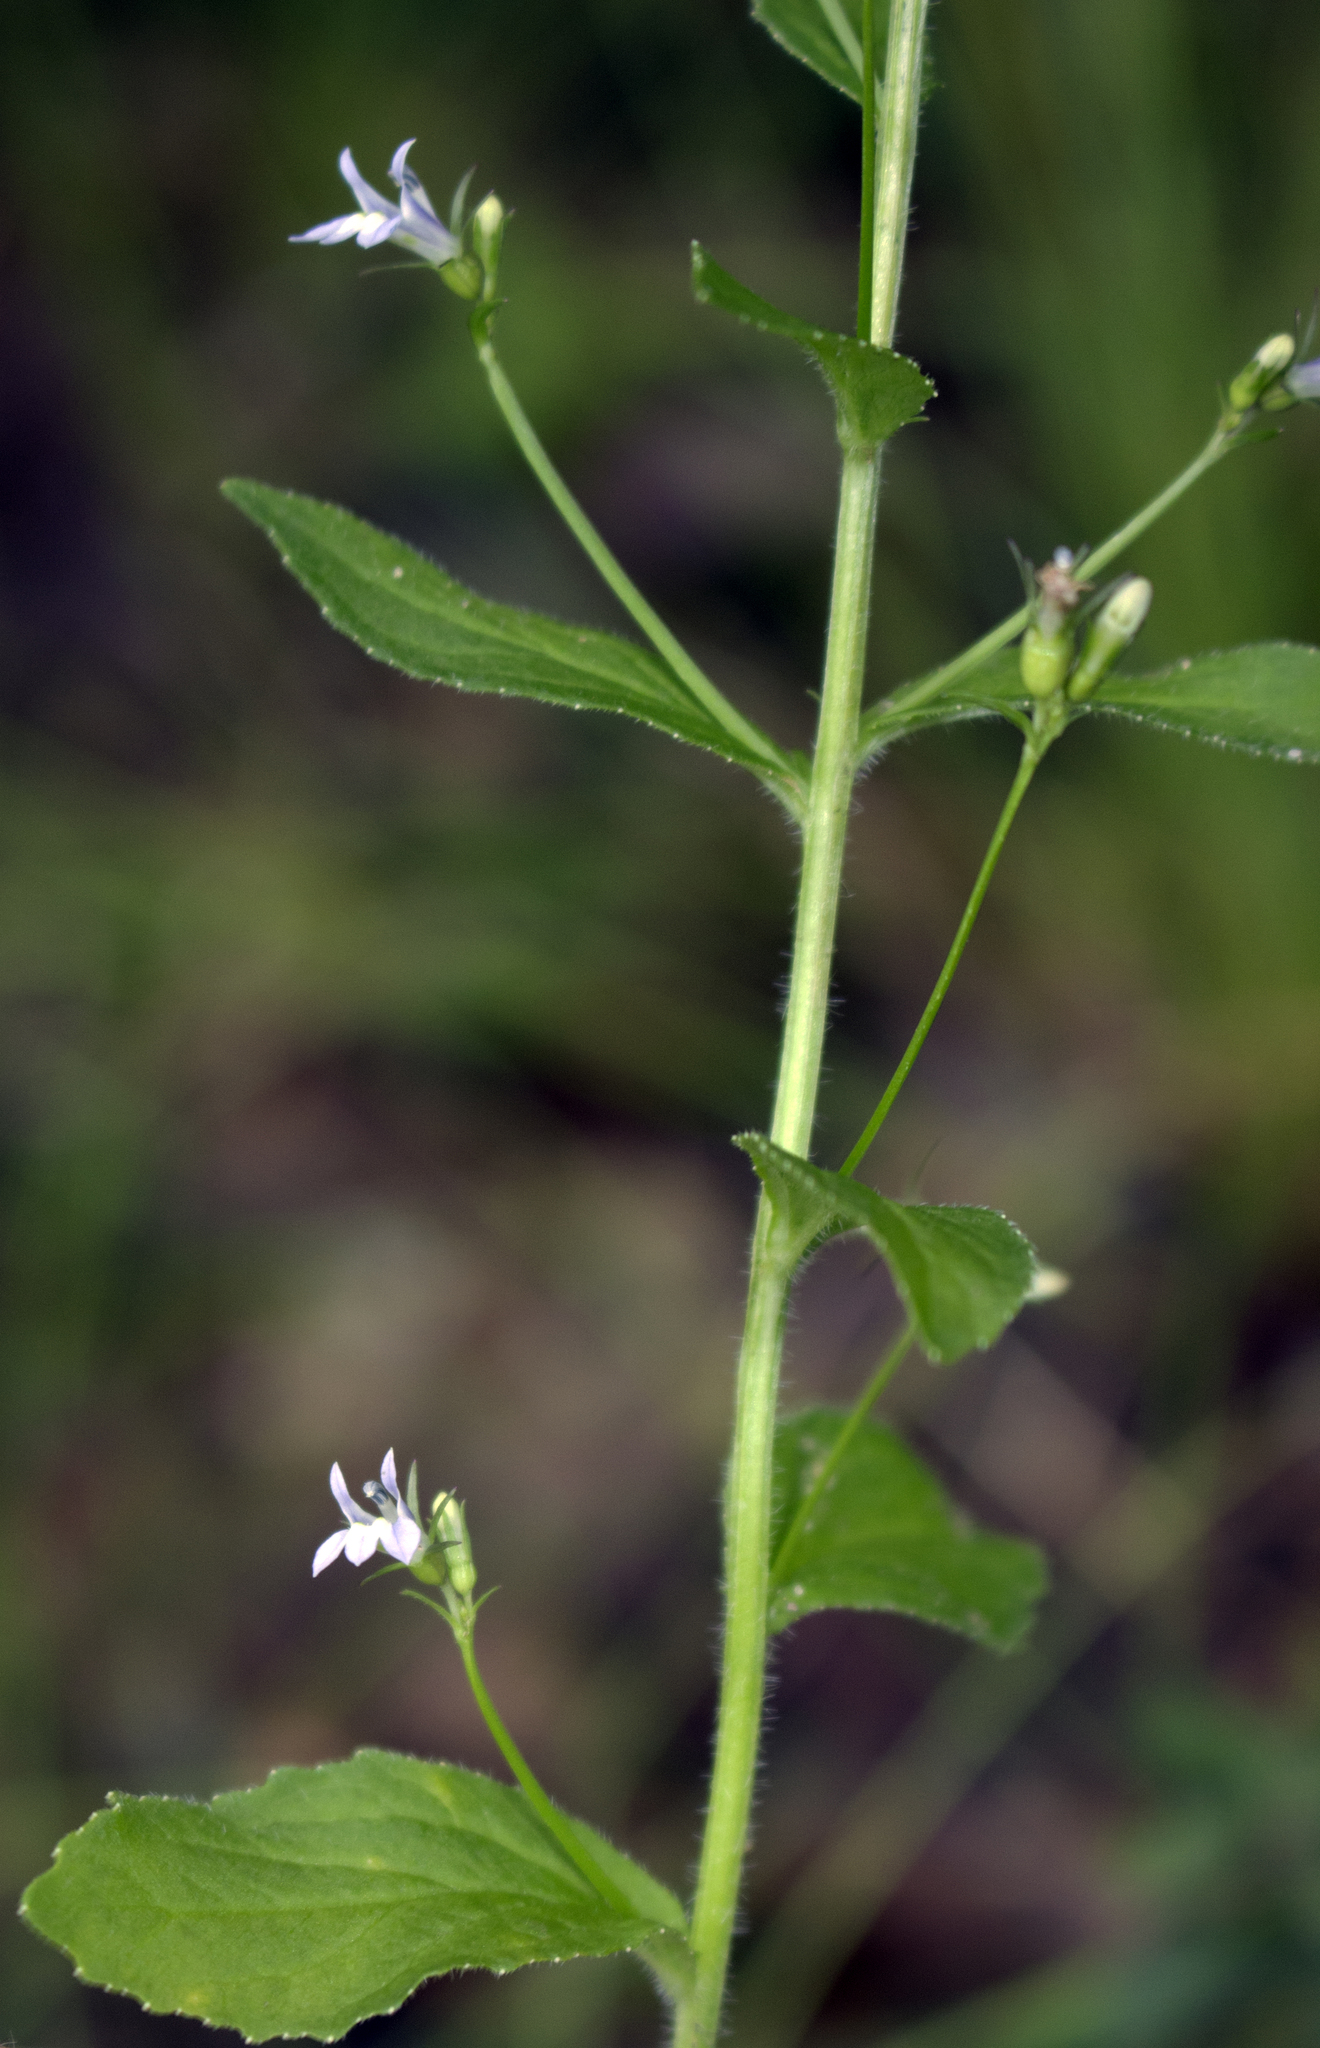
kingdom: Plantae
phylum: Tracheophyta
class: Magnoliopsida
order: Asterales
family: Campanulaceae
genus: Lobelia
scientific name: Lobelia inflata
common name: Indian tobacco
